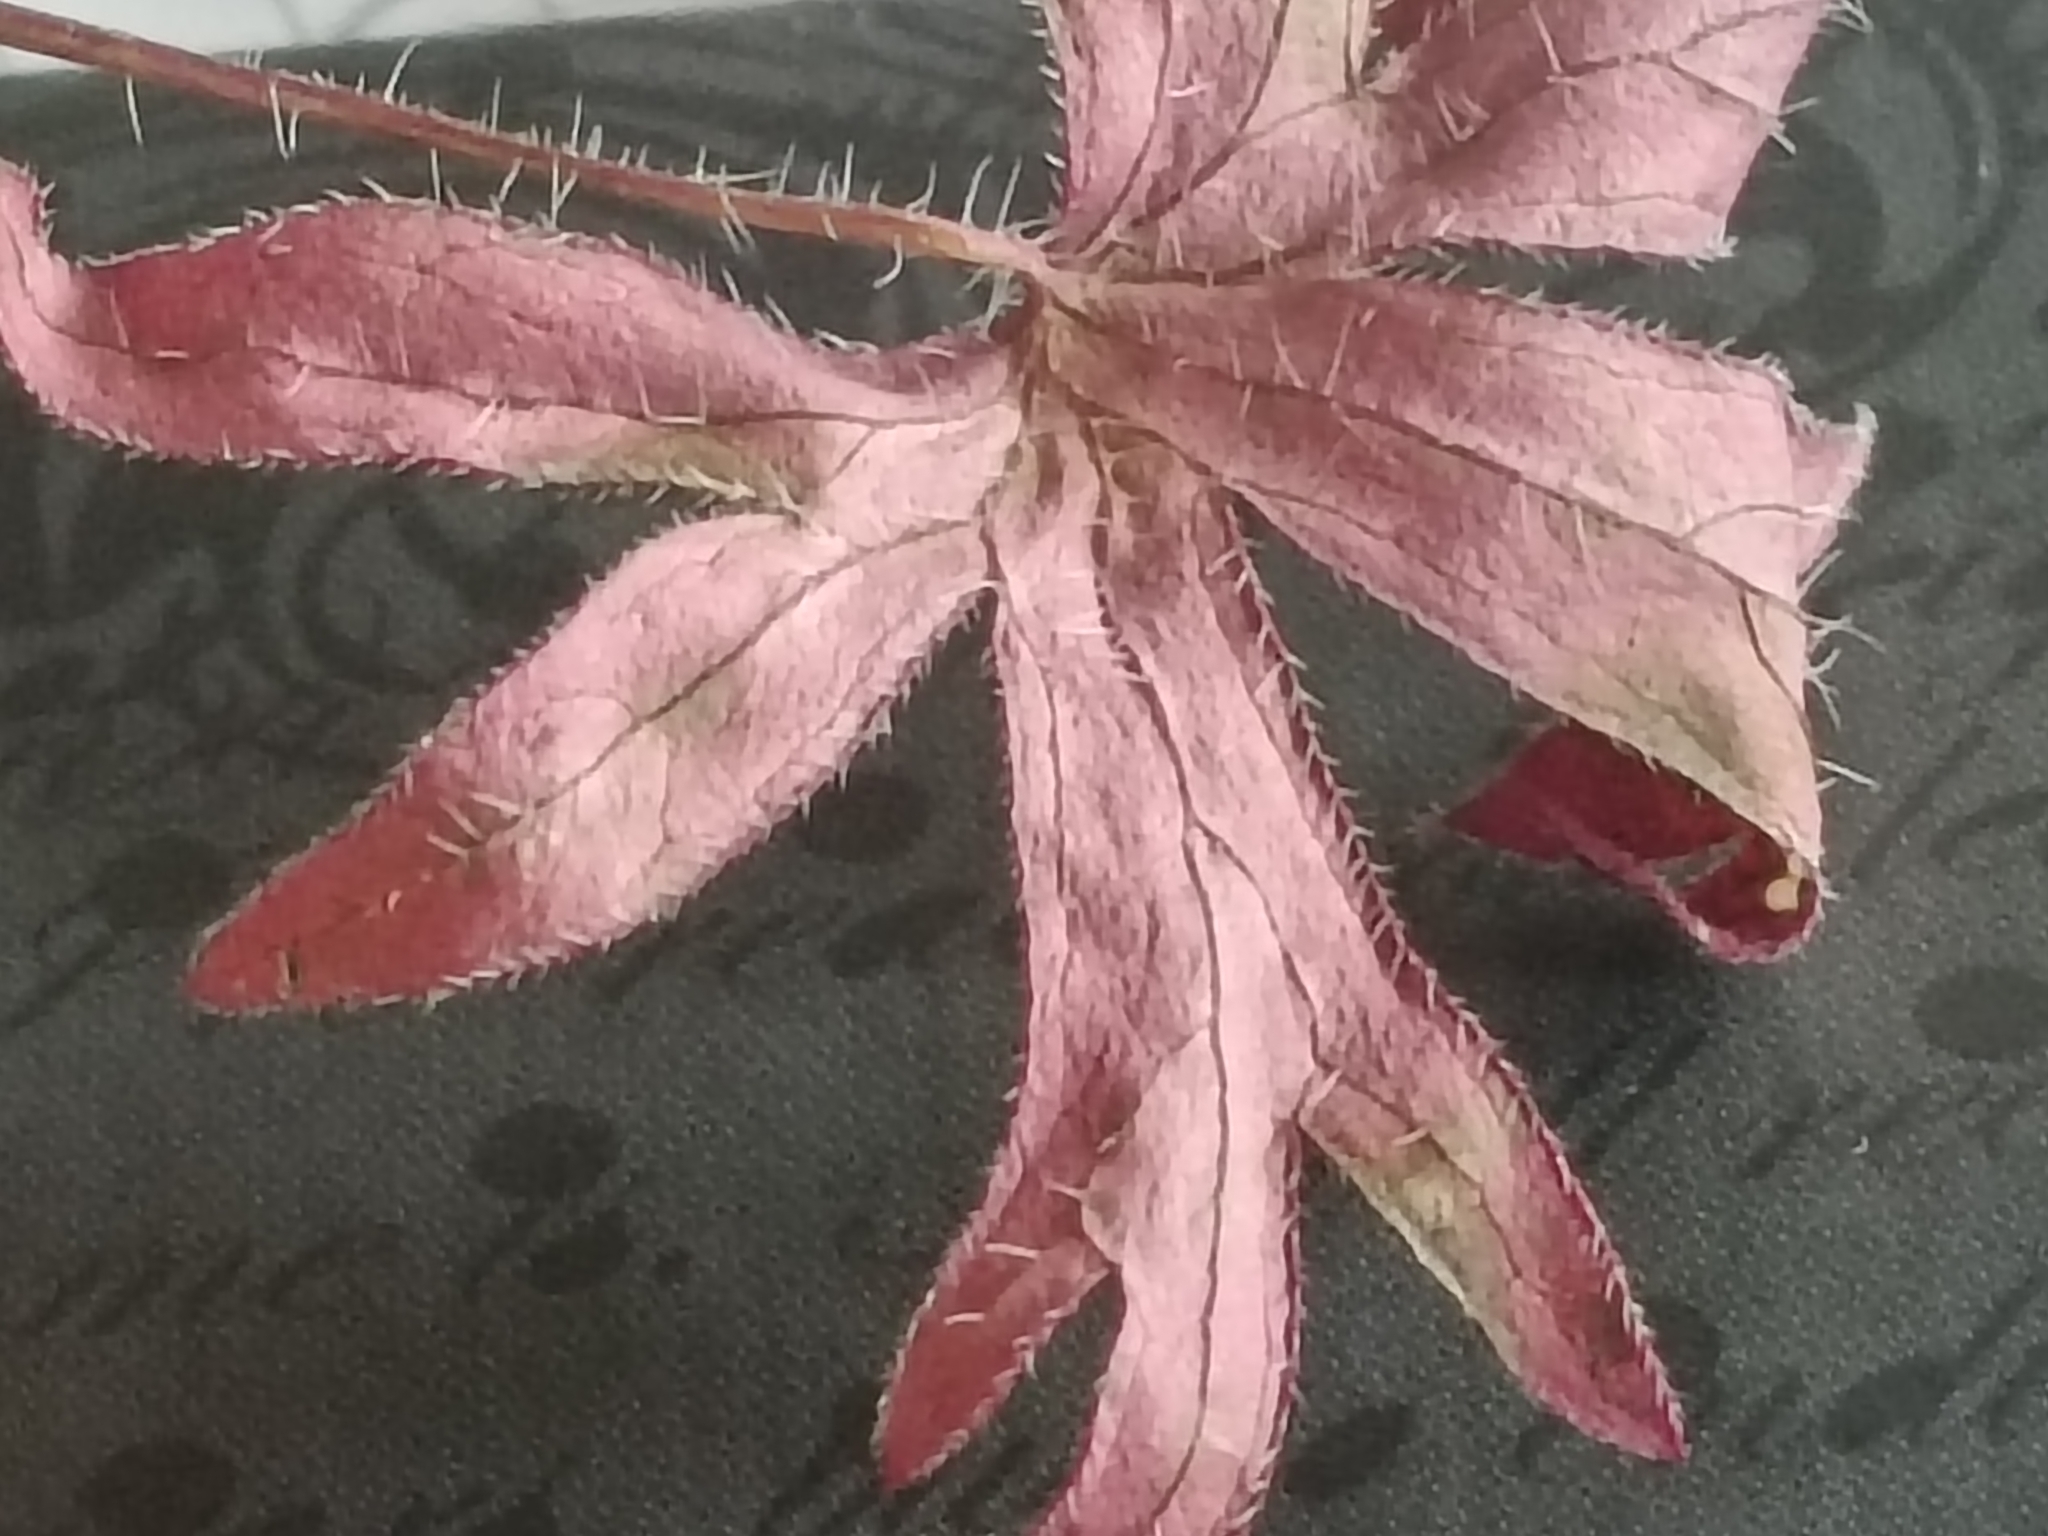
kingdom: Plantae
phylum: Tracheophyta
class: Magnoliopsida
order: Geraniales
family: Geraniaceae
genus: Geranium
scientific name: Geranium sanguineum
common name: Bloody crane's-bill
